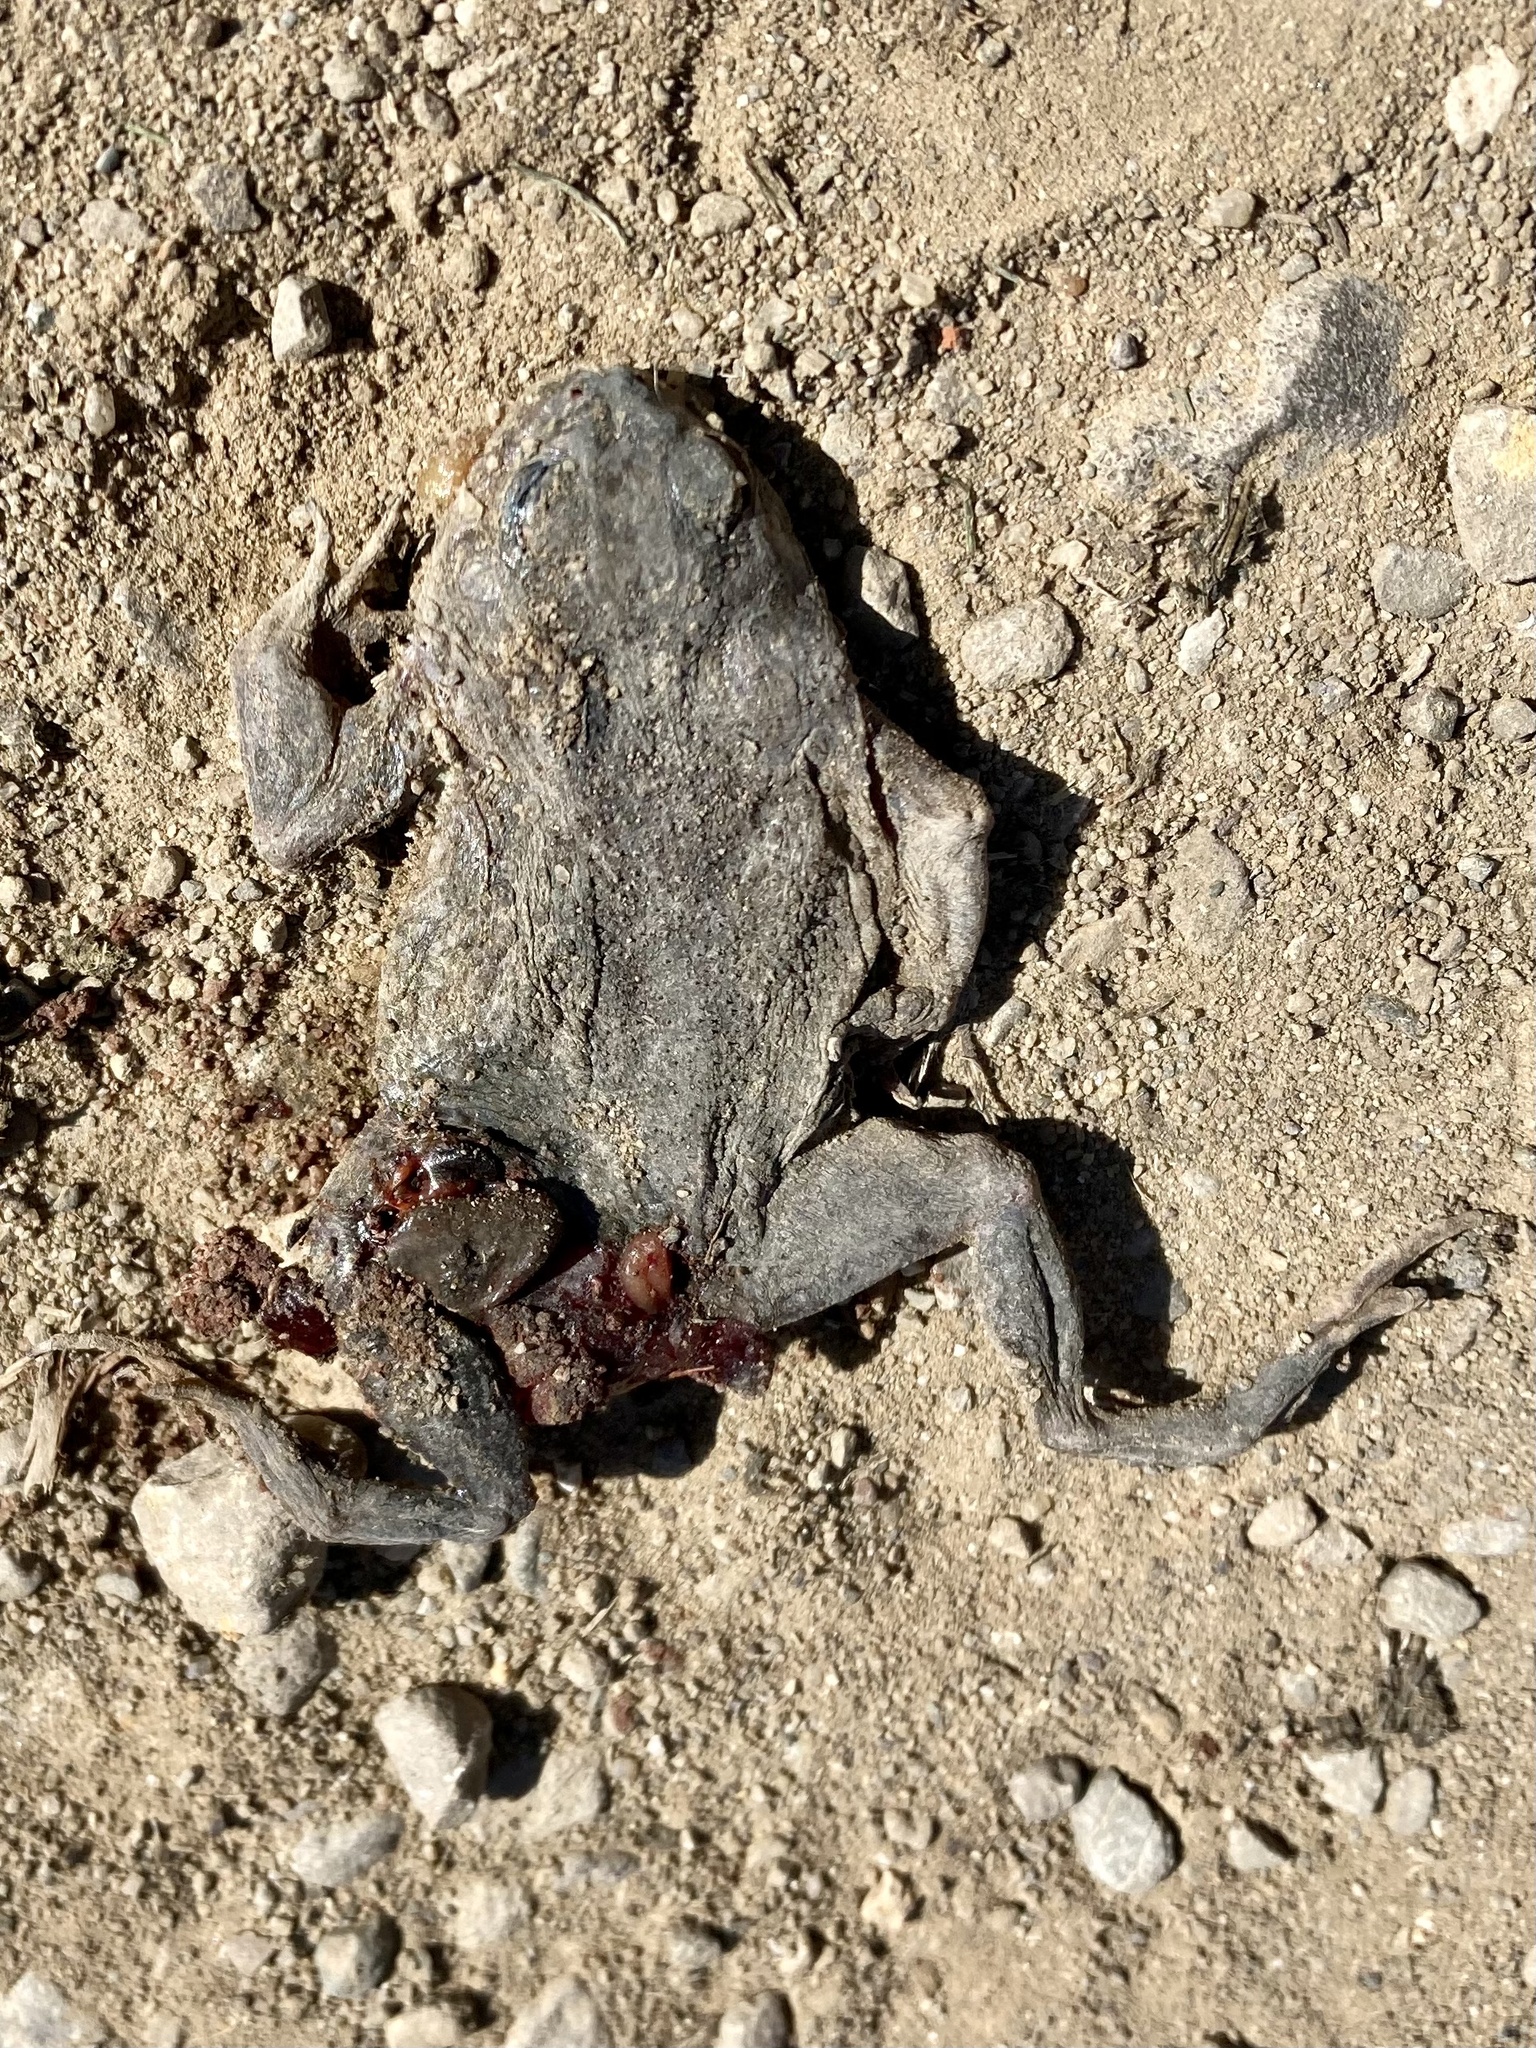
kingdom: Animalia
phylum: Chordata
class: Amphibia
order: Anura
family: Bufonidae
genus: Bufo
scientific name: Bufo bufo
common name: Common toad
